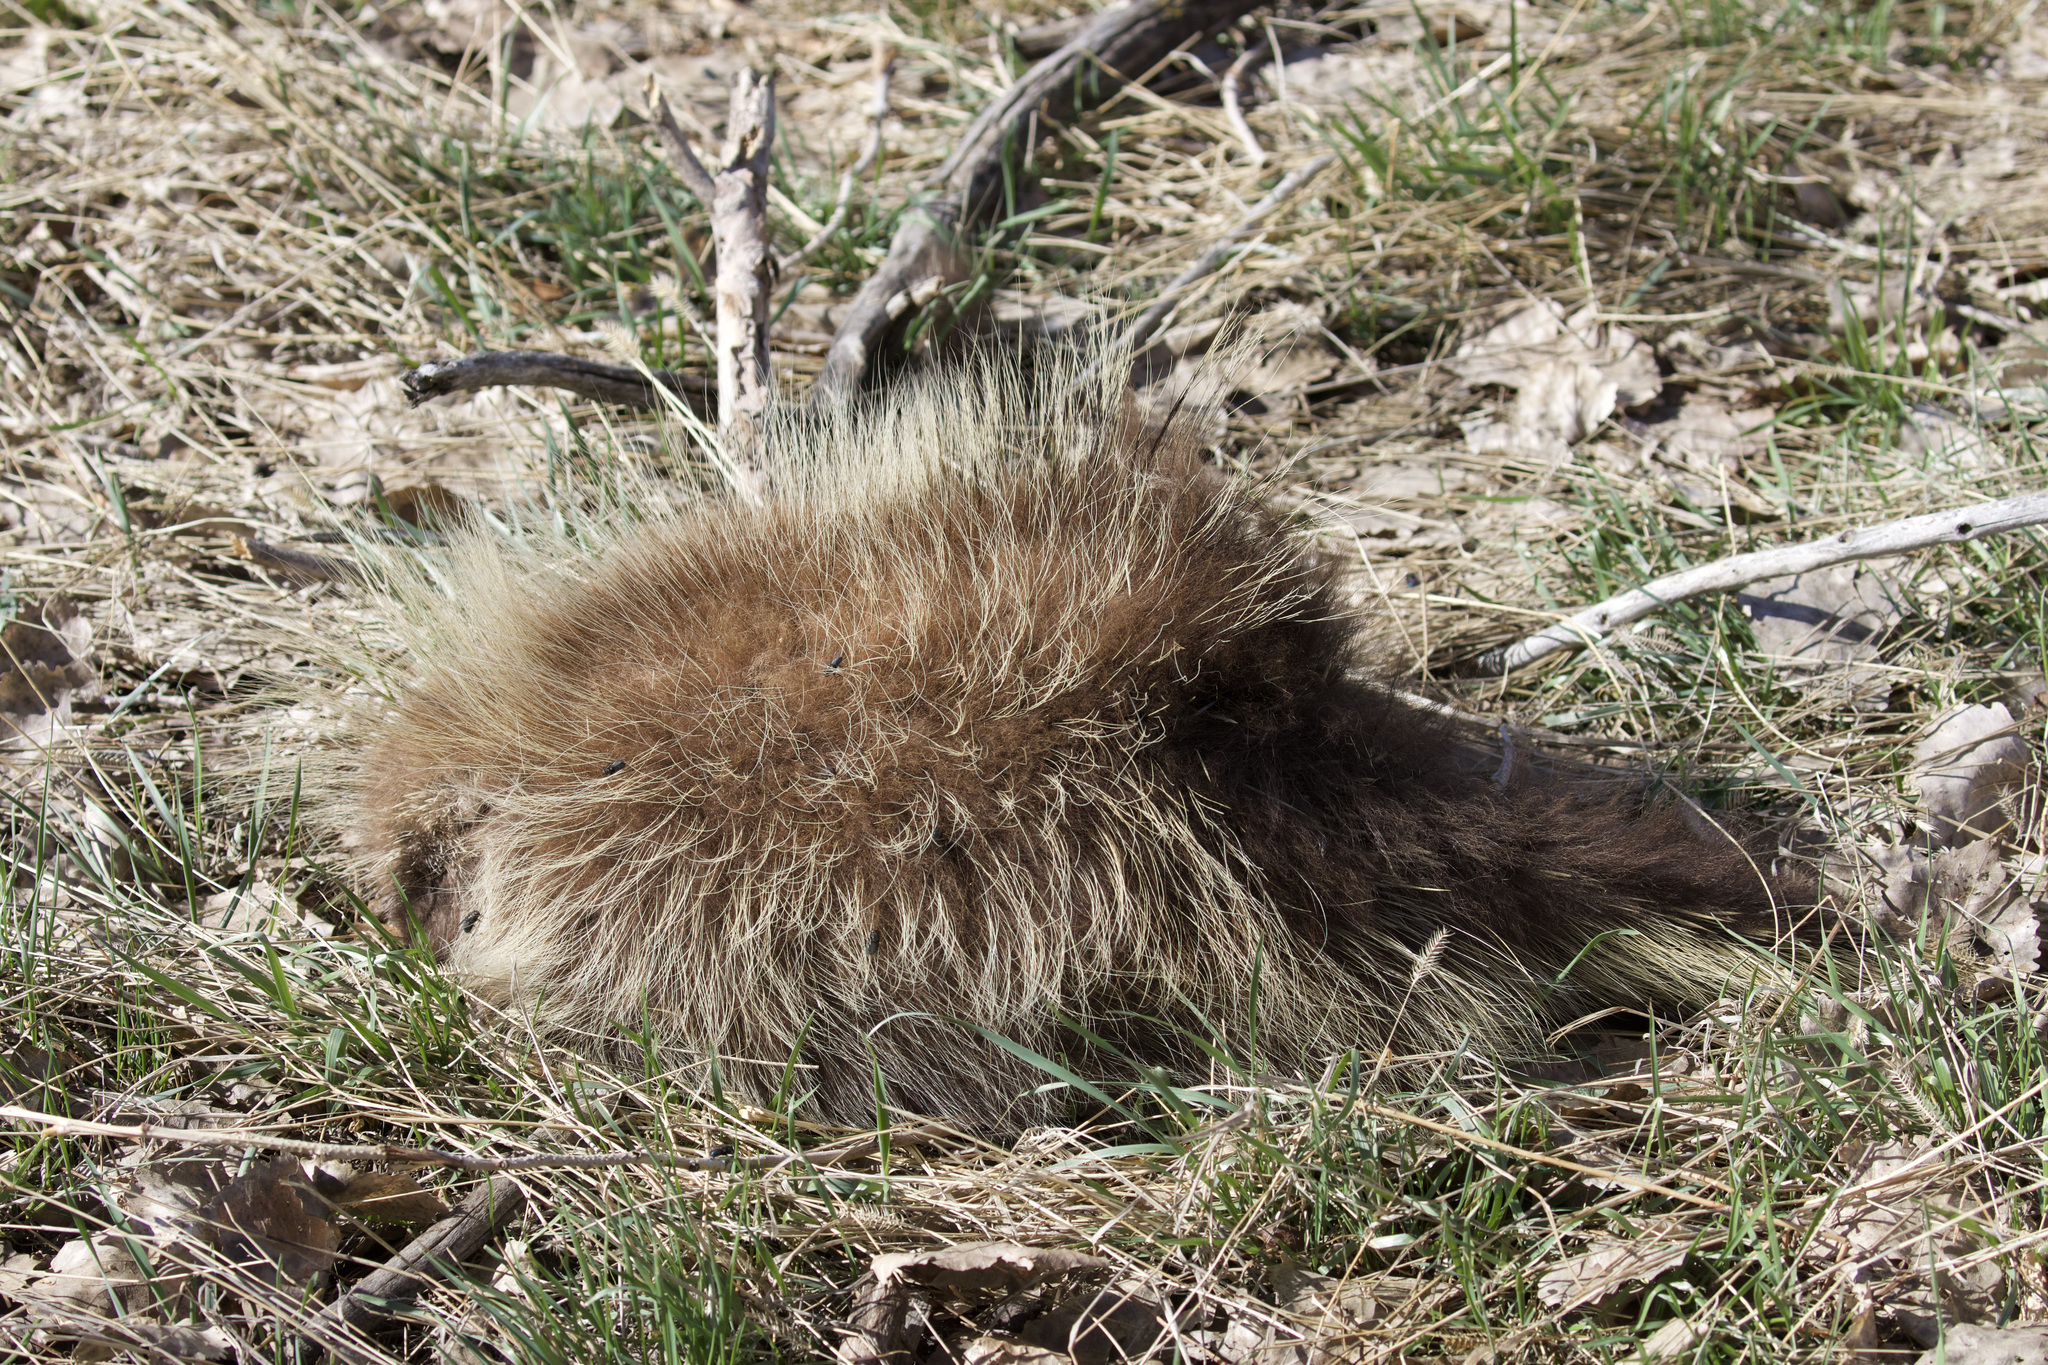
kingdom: Animalia
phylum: Chordata
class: Mammalia
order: Rodentia
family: Erethizontidae
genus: Erethizon
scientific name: Erethizon dorsatus
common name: North american porcupine
